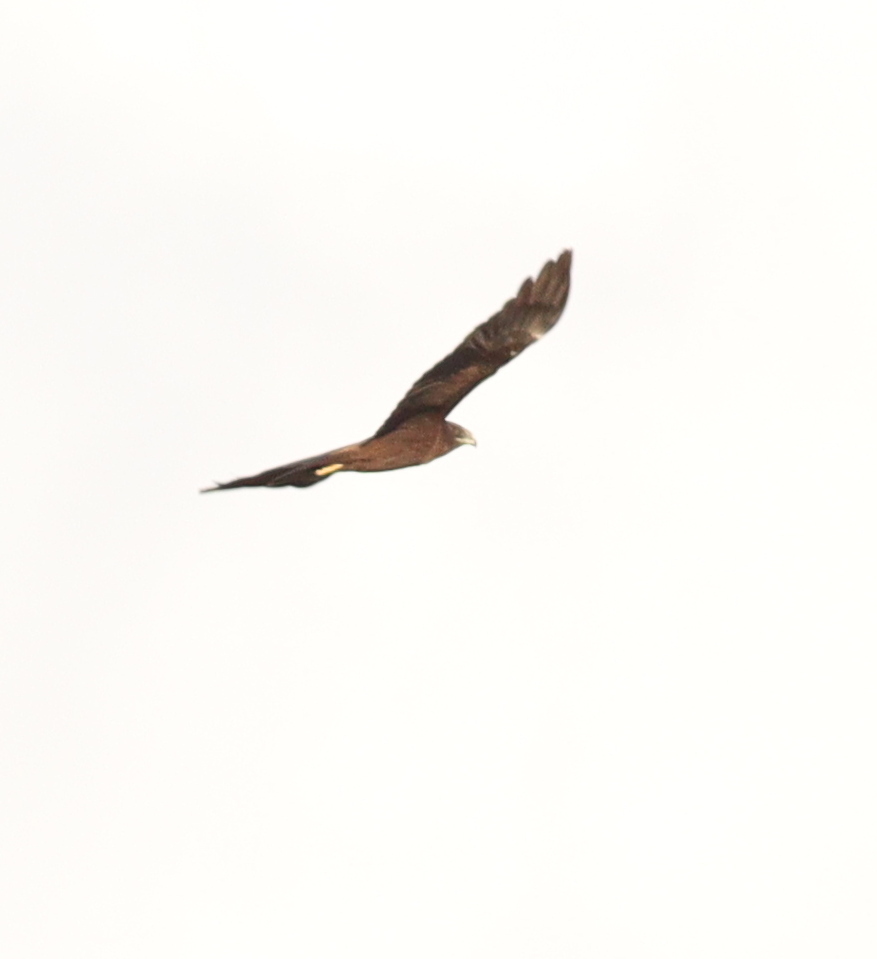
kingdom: Animalia
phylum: Chordata
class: Aves
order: Accipitriformes
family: Accipitridae
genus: Circus
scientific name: Circus aeruginosus
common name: Western marsh harrier
